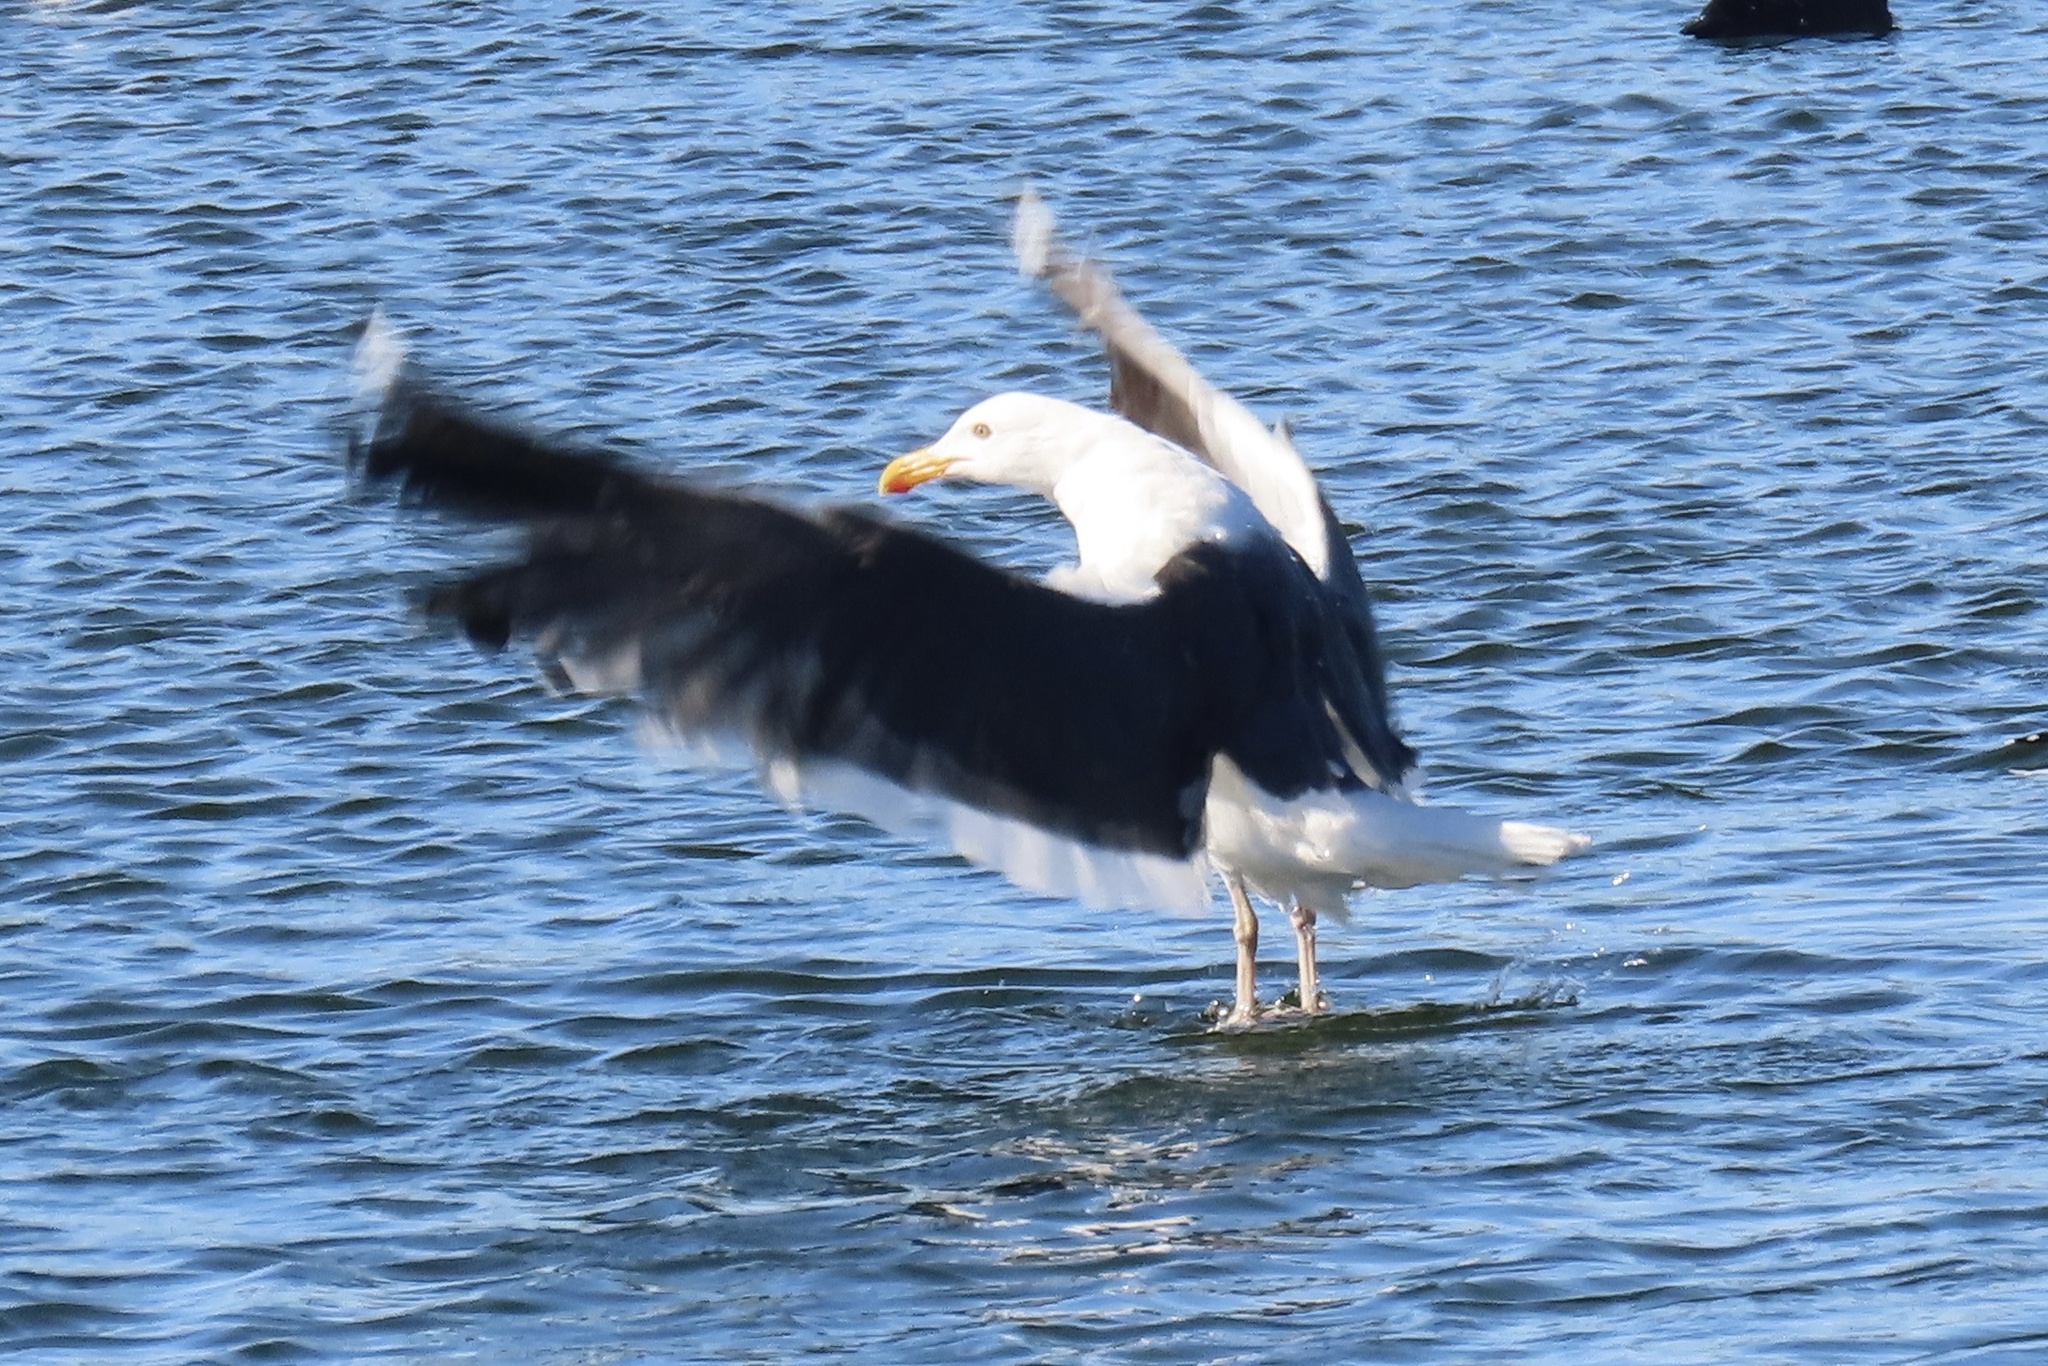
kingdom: Animalia
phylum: Chordata
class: Aves
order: Charadriiformes
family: Laridae
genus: Larus
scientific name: Larus occidentalis
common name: Western gull
